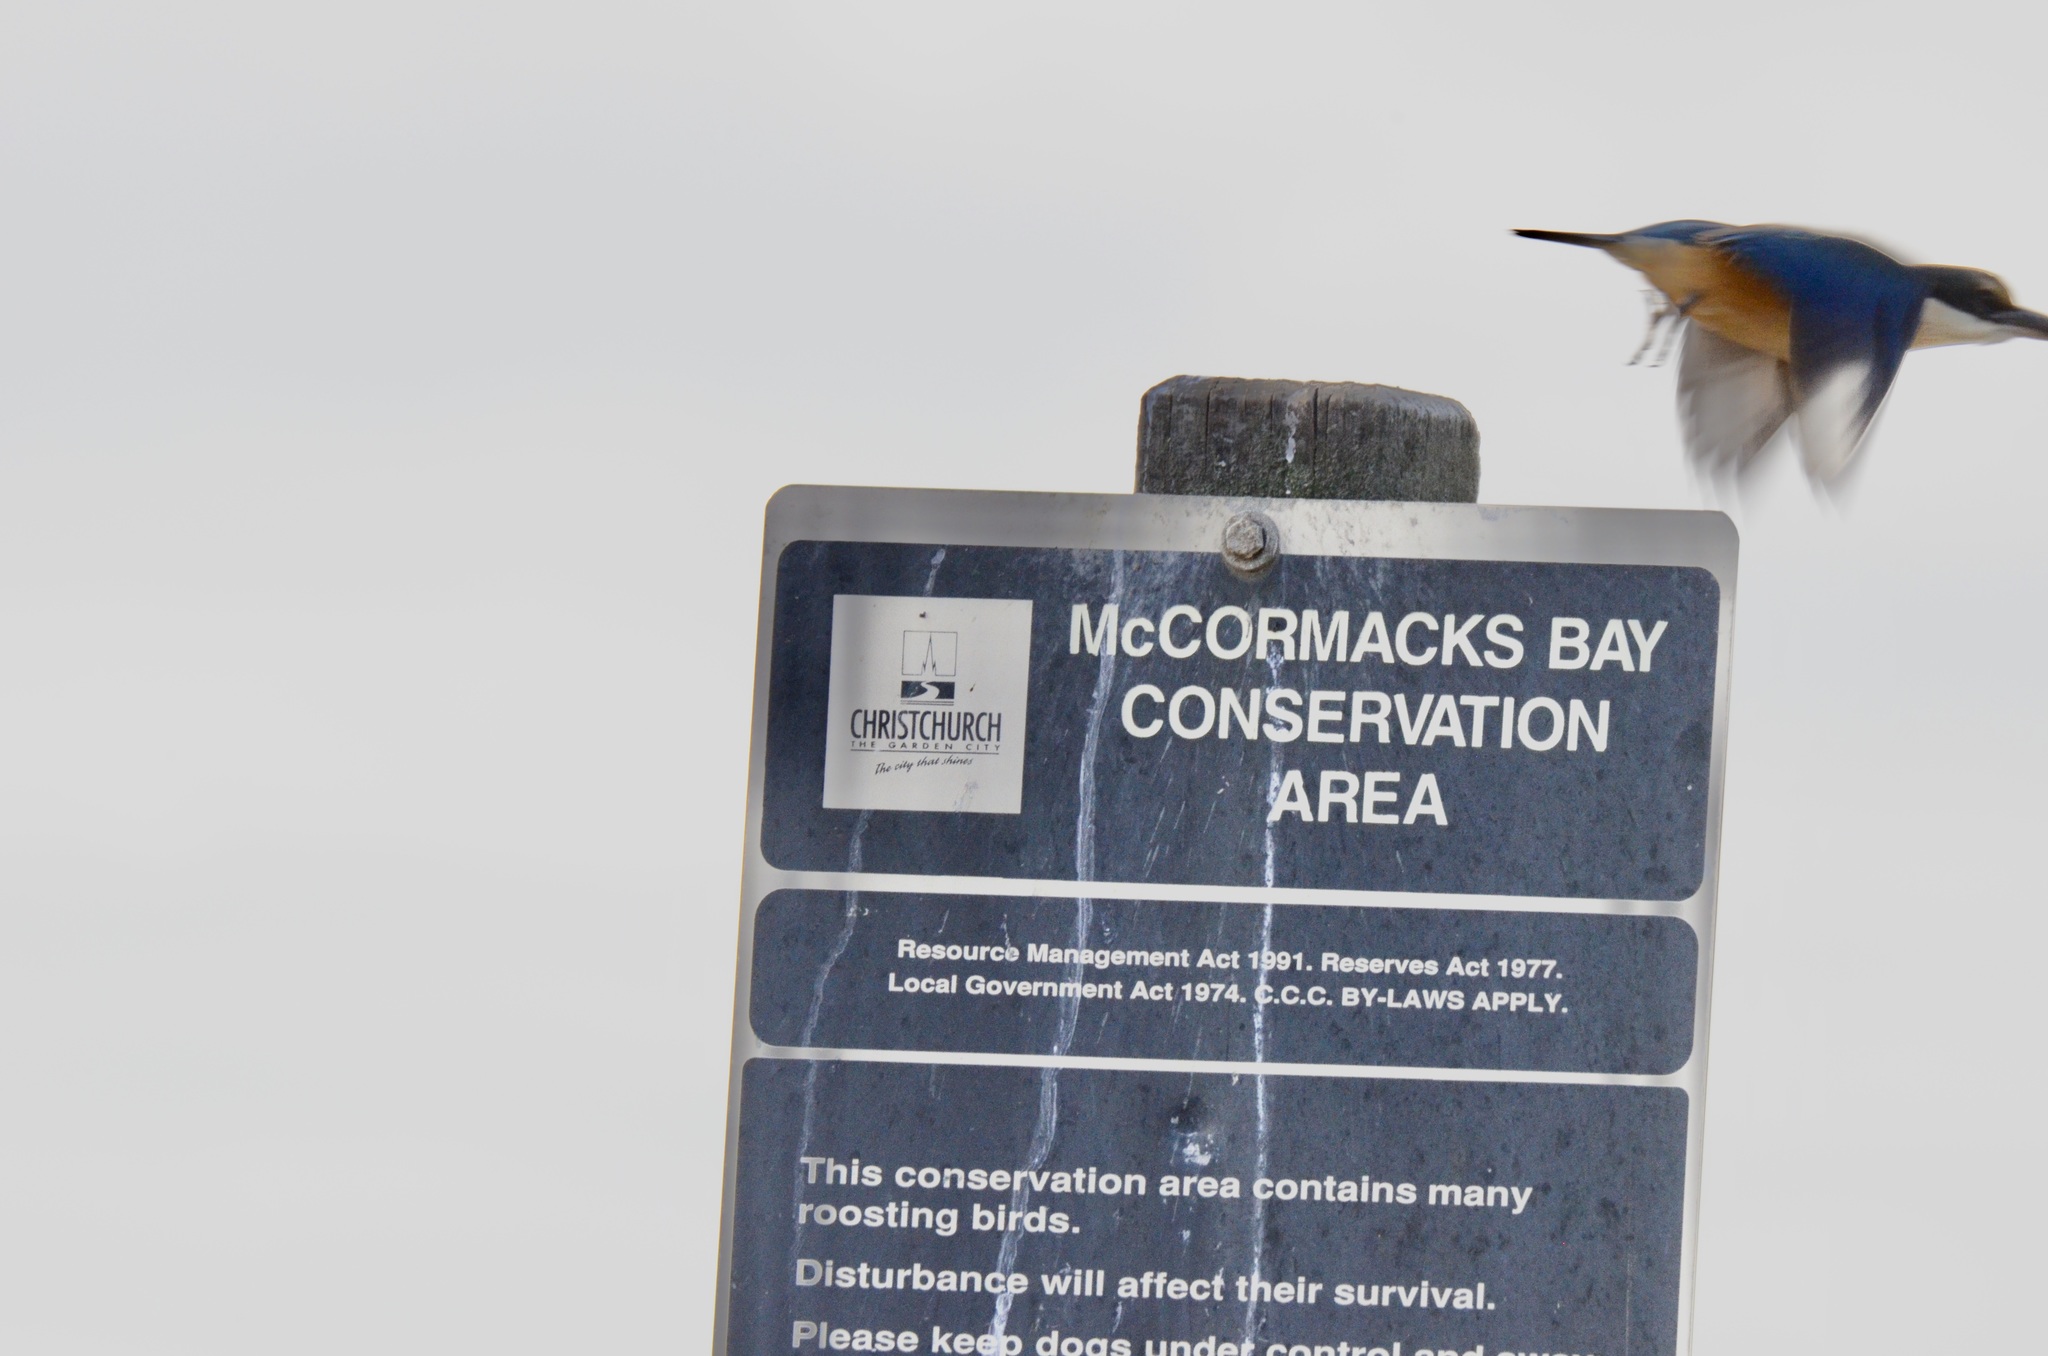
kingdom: Animalia
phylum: Chordata
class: Aves
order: Coraciiformes
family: Alcedinidae
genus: Todiramphus
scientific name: Todiramphus sanctus
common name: Sacred kingfisher
